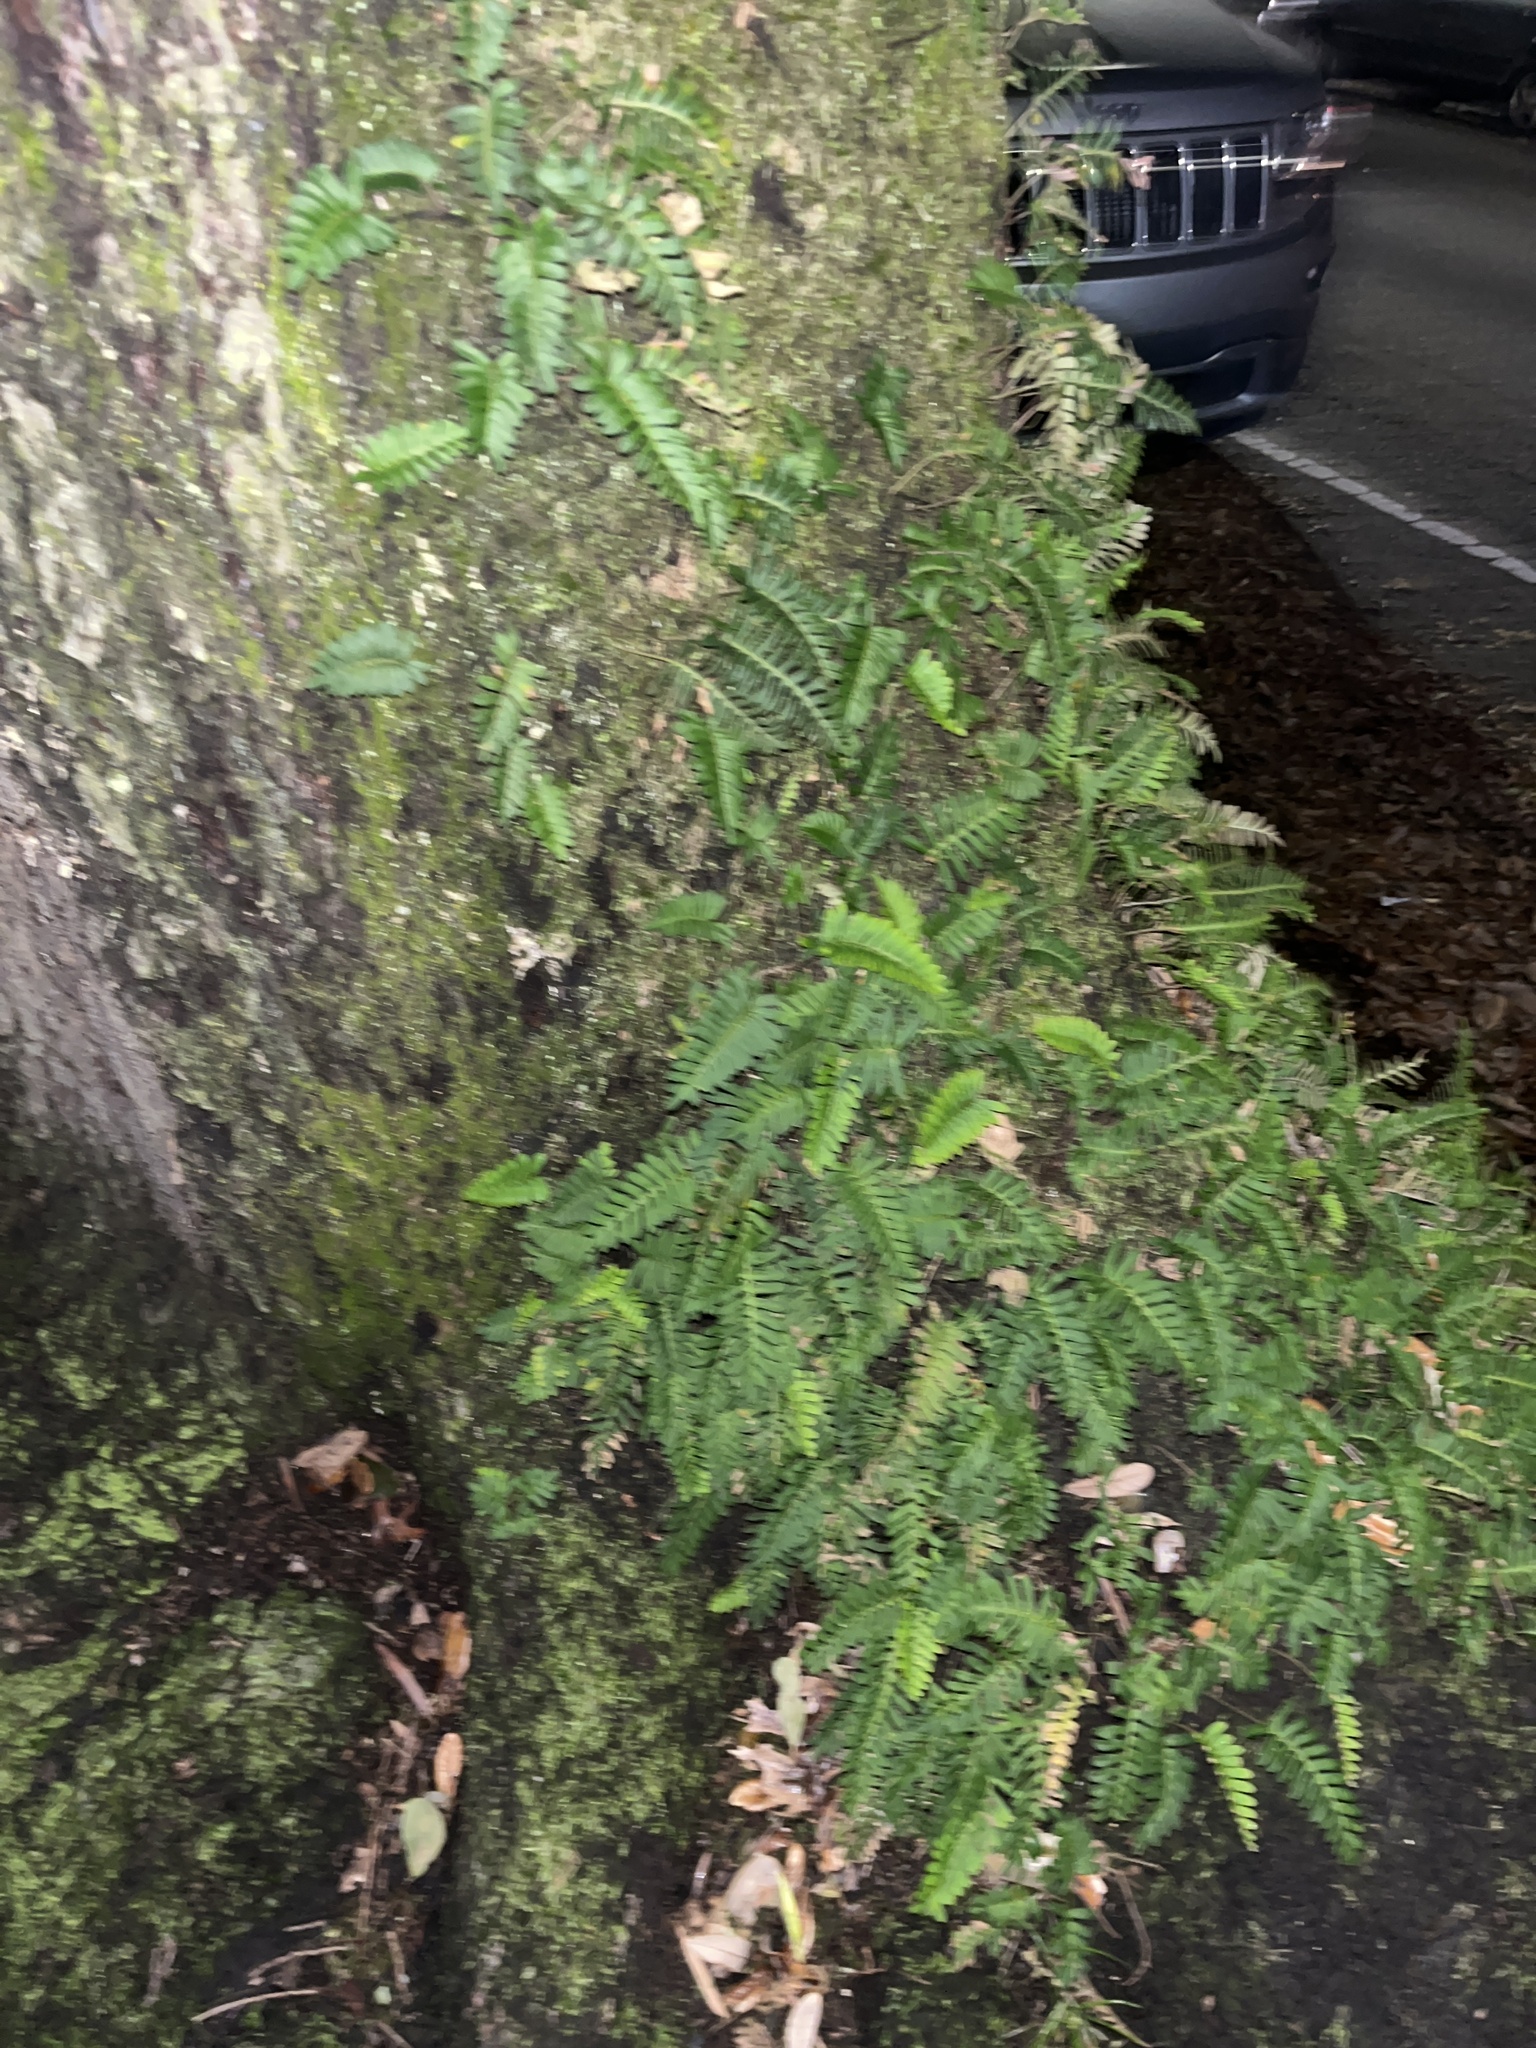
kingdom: Plantae
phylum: Tracheophyta
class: Polypodiopsida
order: Polypodiales
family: Polypodiaceae
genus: Pleopeltis
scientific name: Pleopeltis michauxiana
